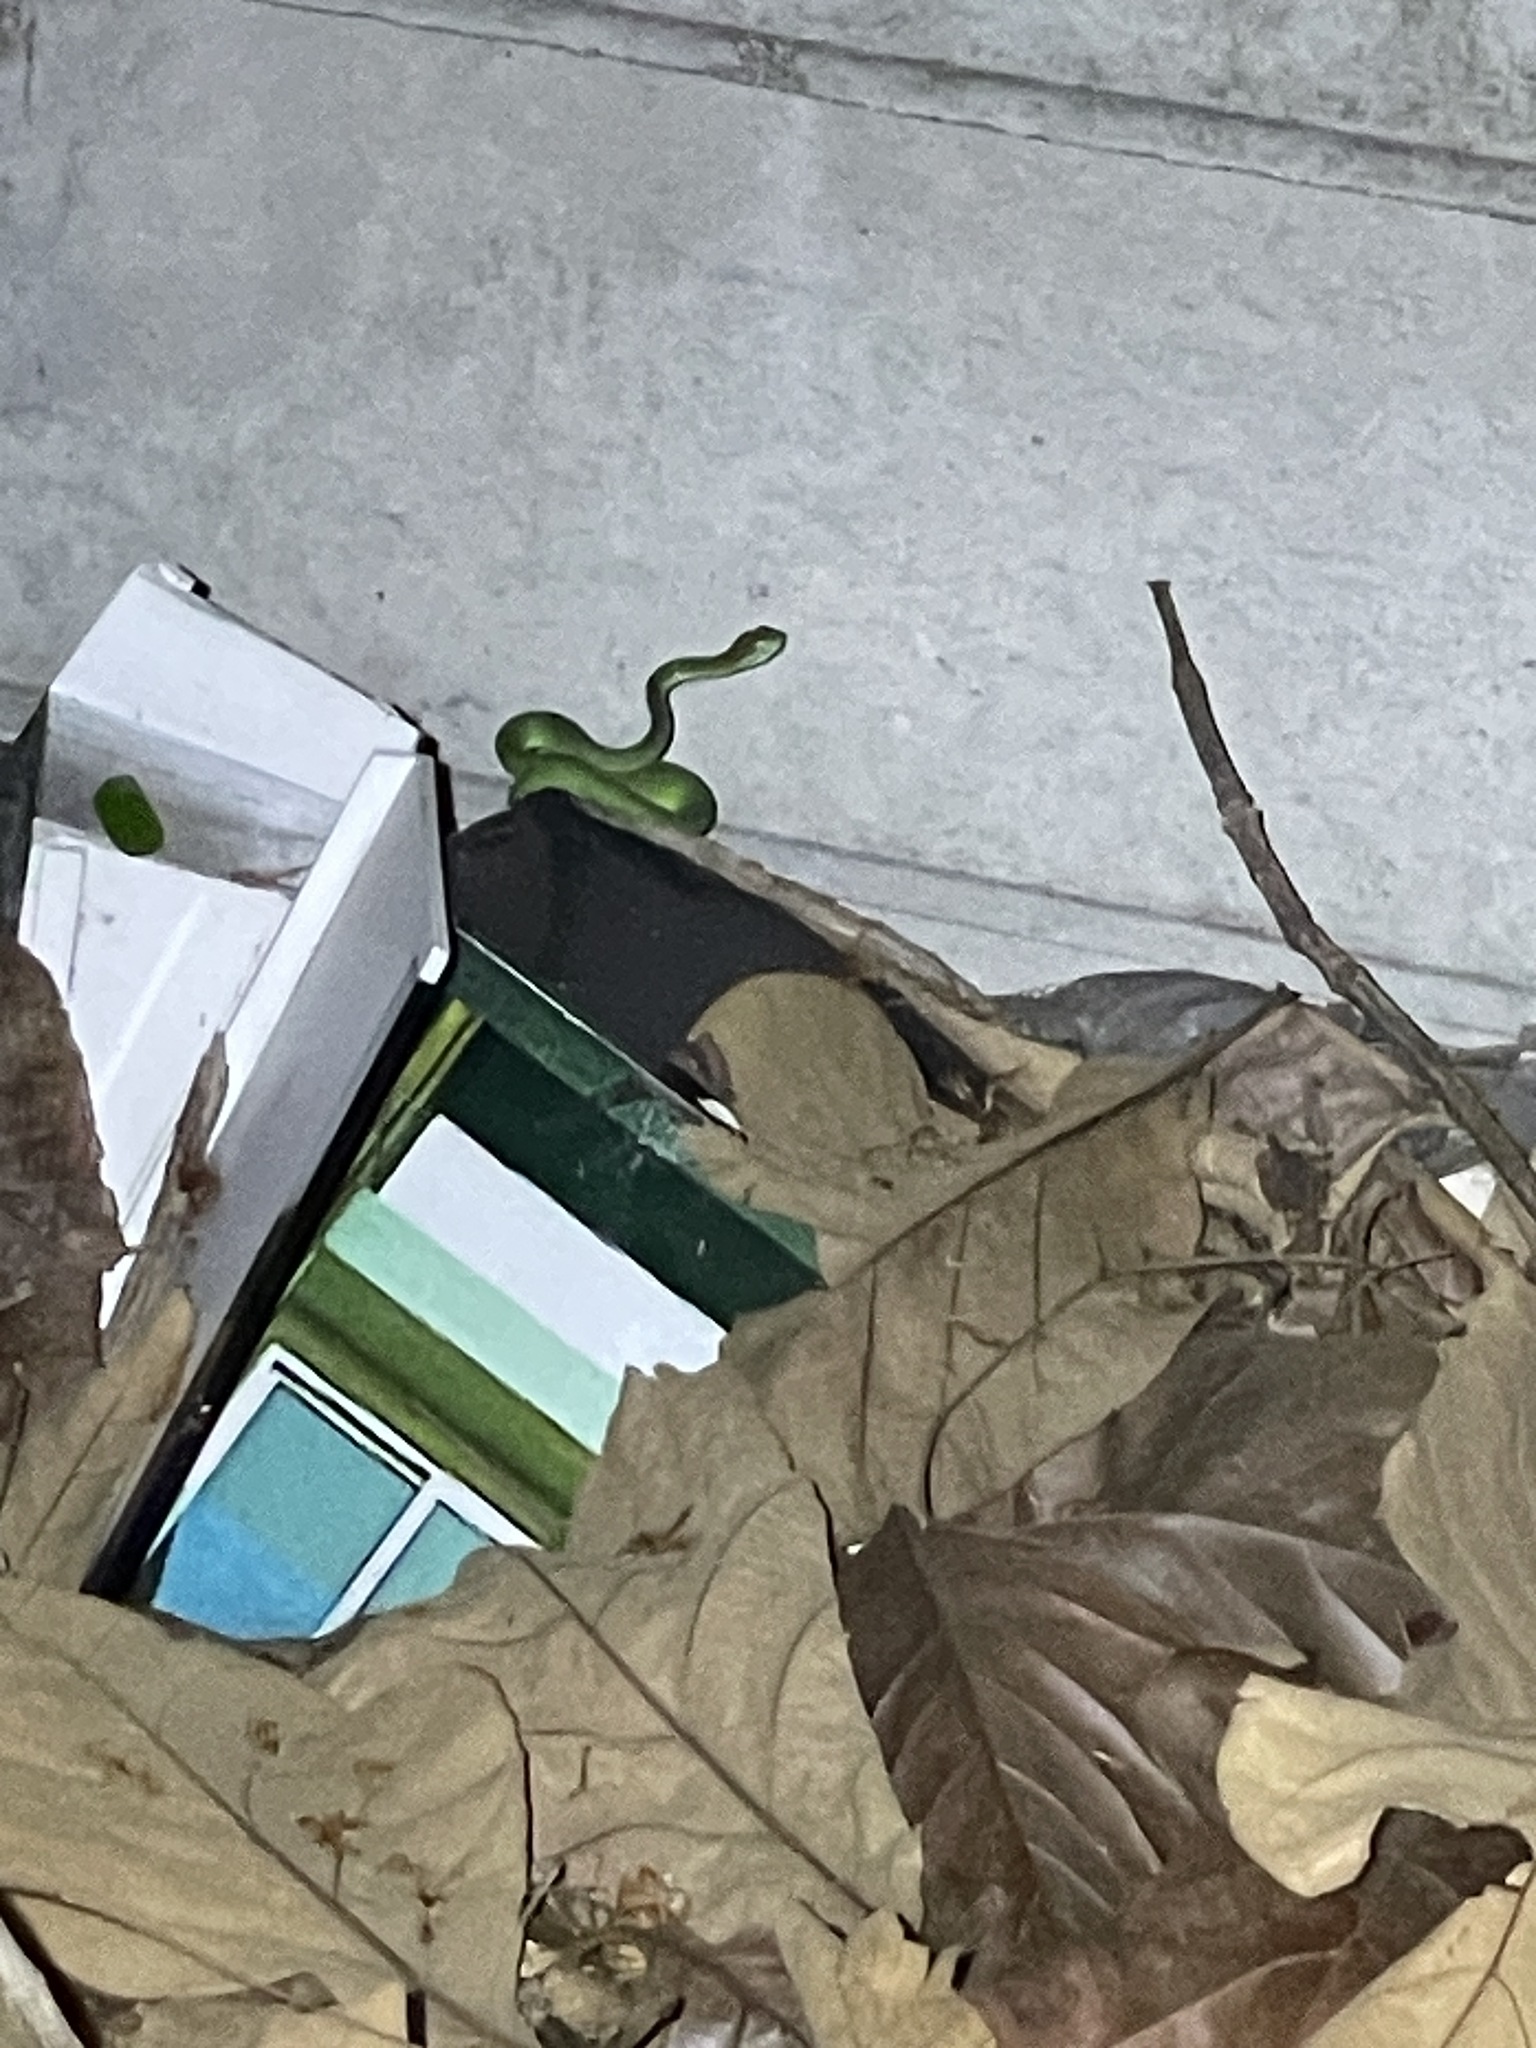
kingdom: Animalia
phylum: Chordata
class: Squamata
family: Viperidae
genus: Trimeresurus
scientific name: Trimeresurus macrops
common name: Kramer's pit viper
